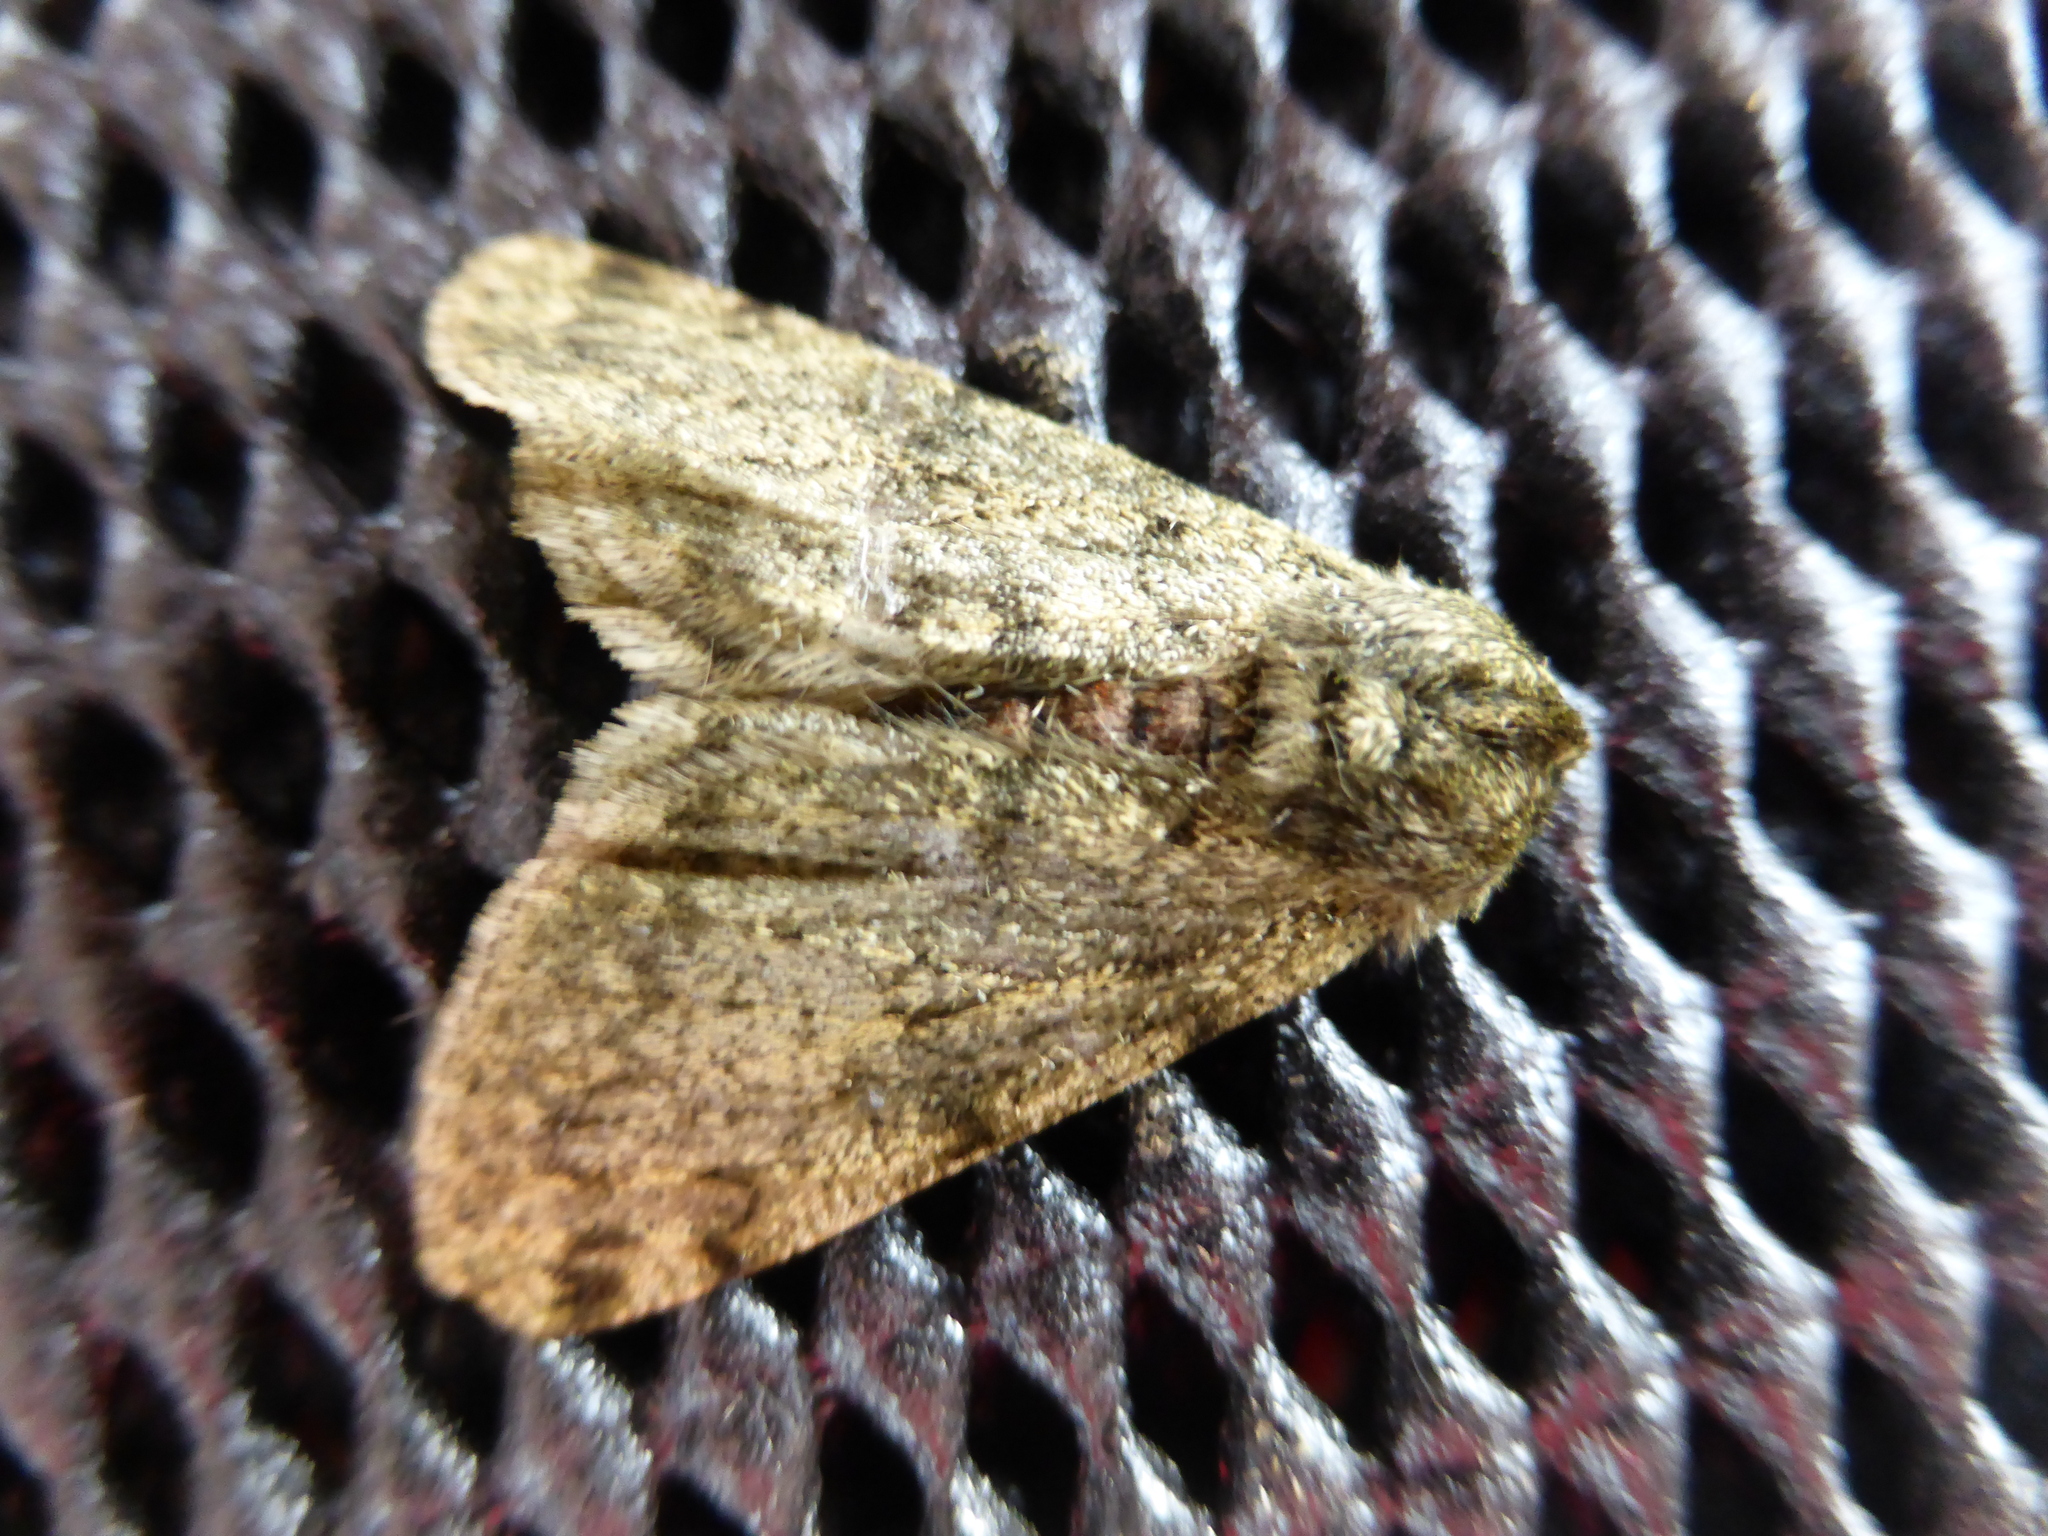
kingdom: Animalia
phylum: Arthropoda
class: Insecta
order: Lepidoptera
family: Geometridae
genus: Phigalia
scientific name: Phigalia pilosaria
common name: Pale brindled beauty
